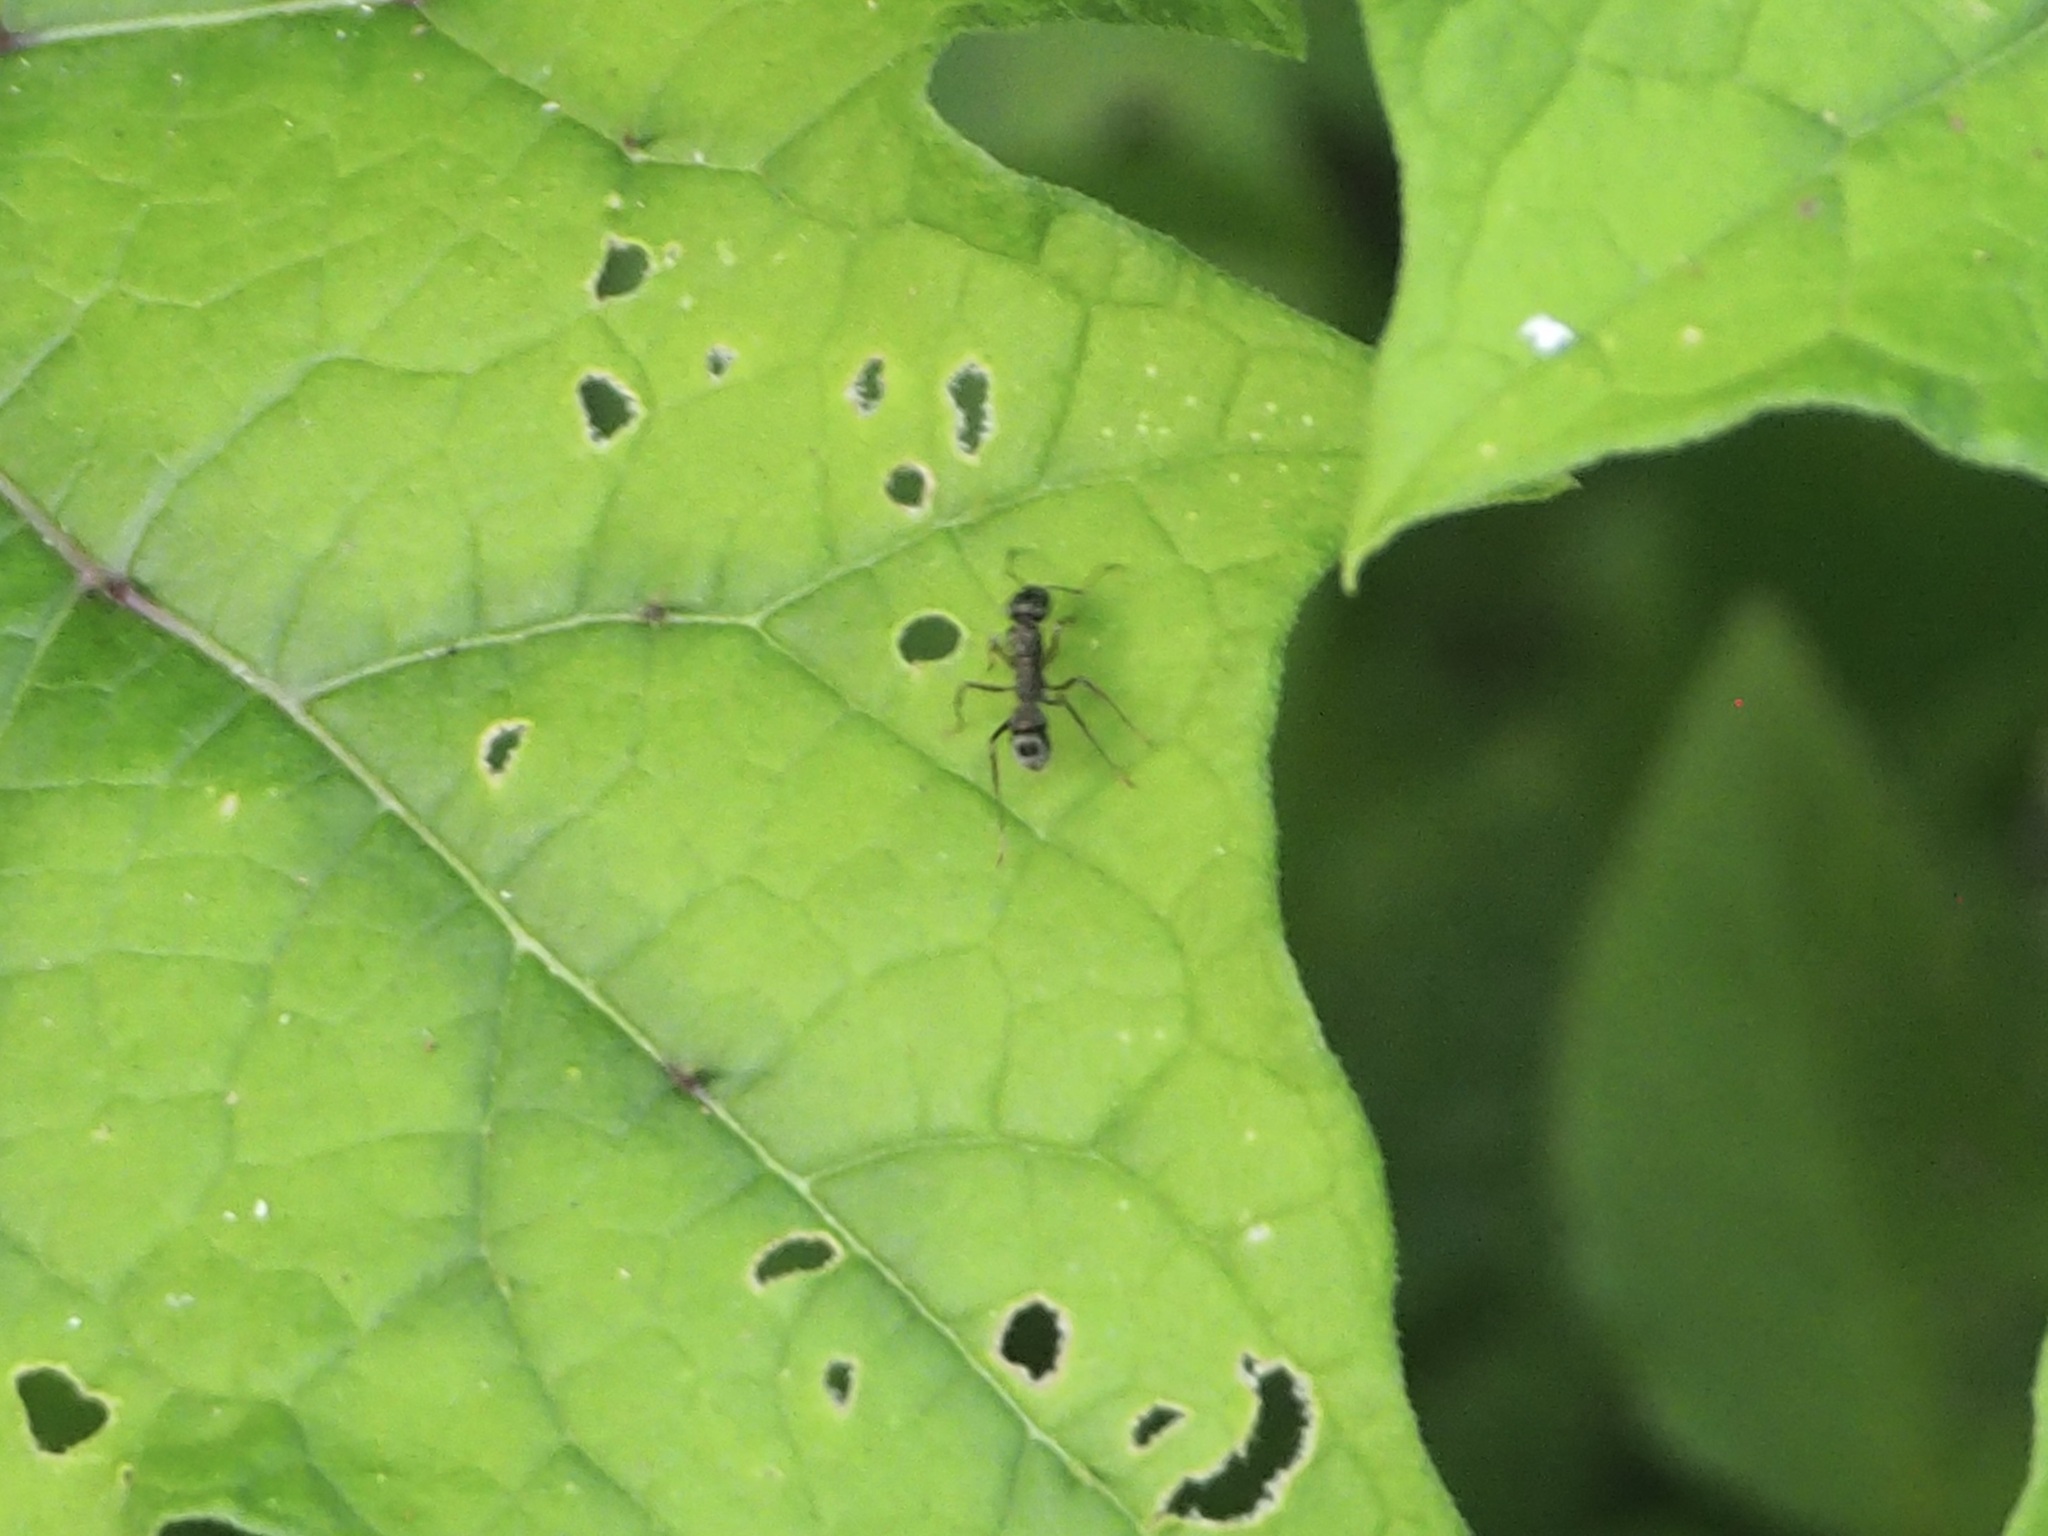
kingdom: Animalia
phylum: Arthropoda
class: Insecta
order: Hymenoptera
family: Formicidae
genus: Ectatomma
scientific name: Ectatomma
